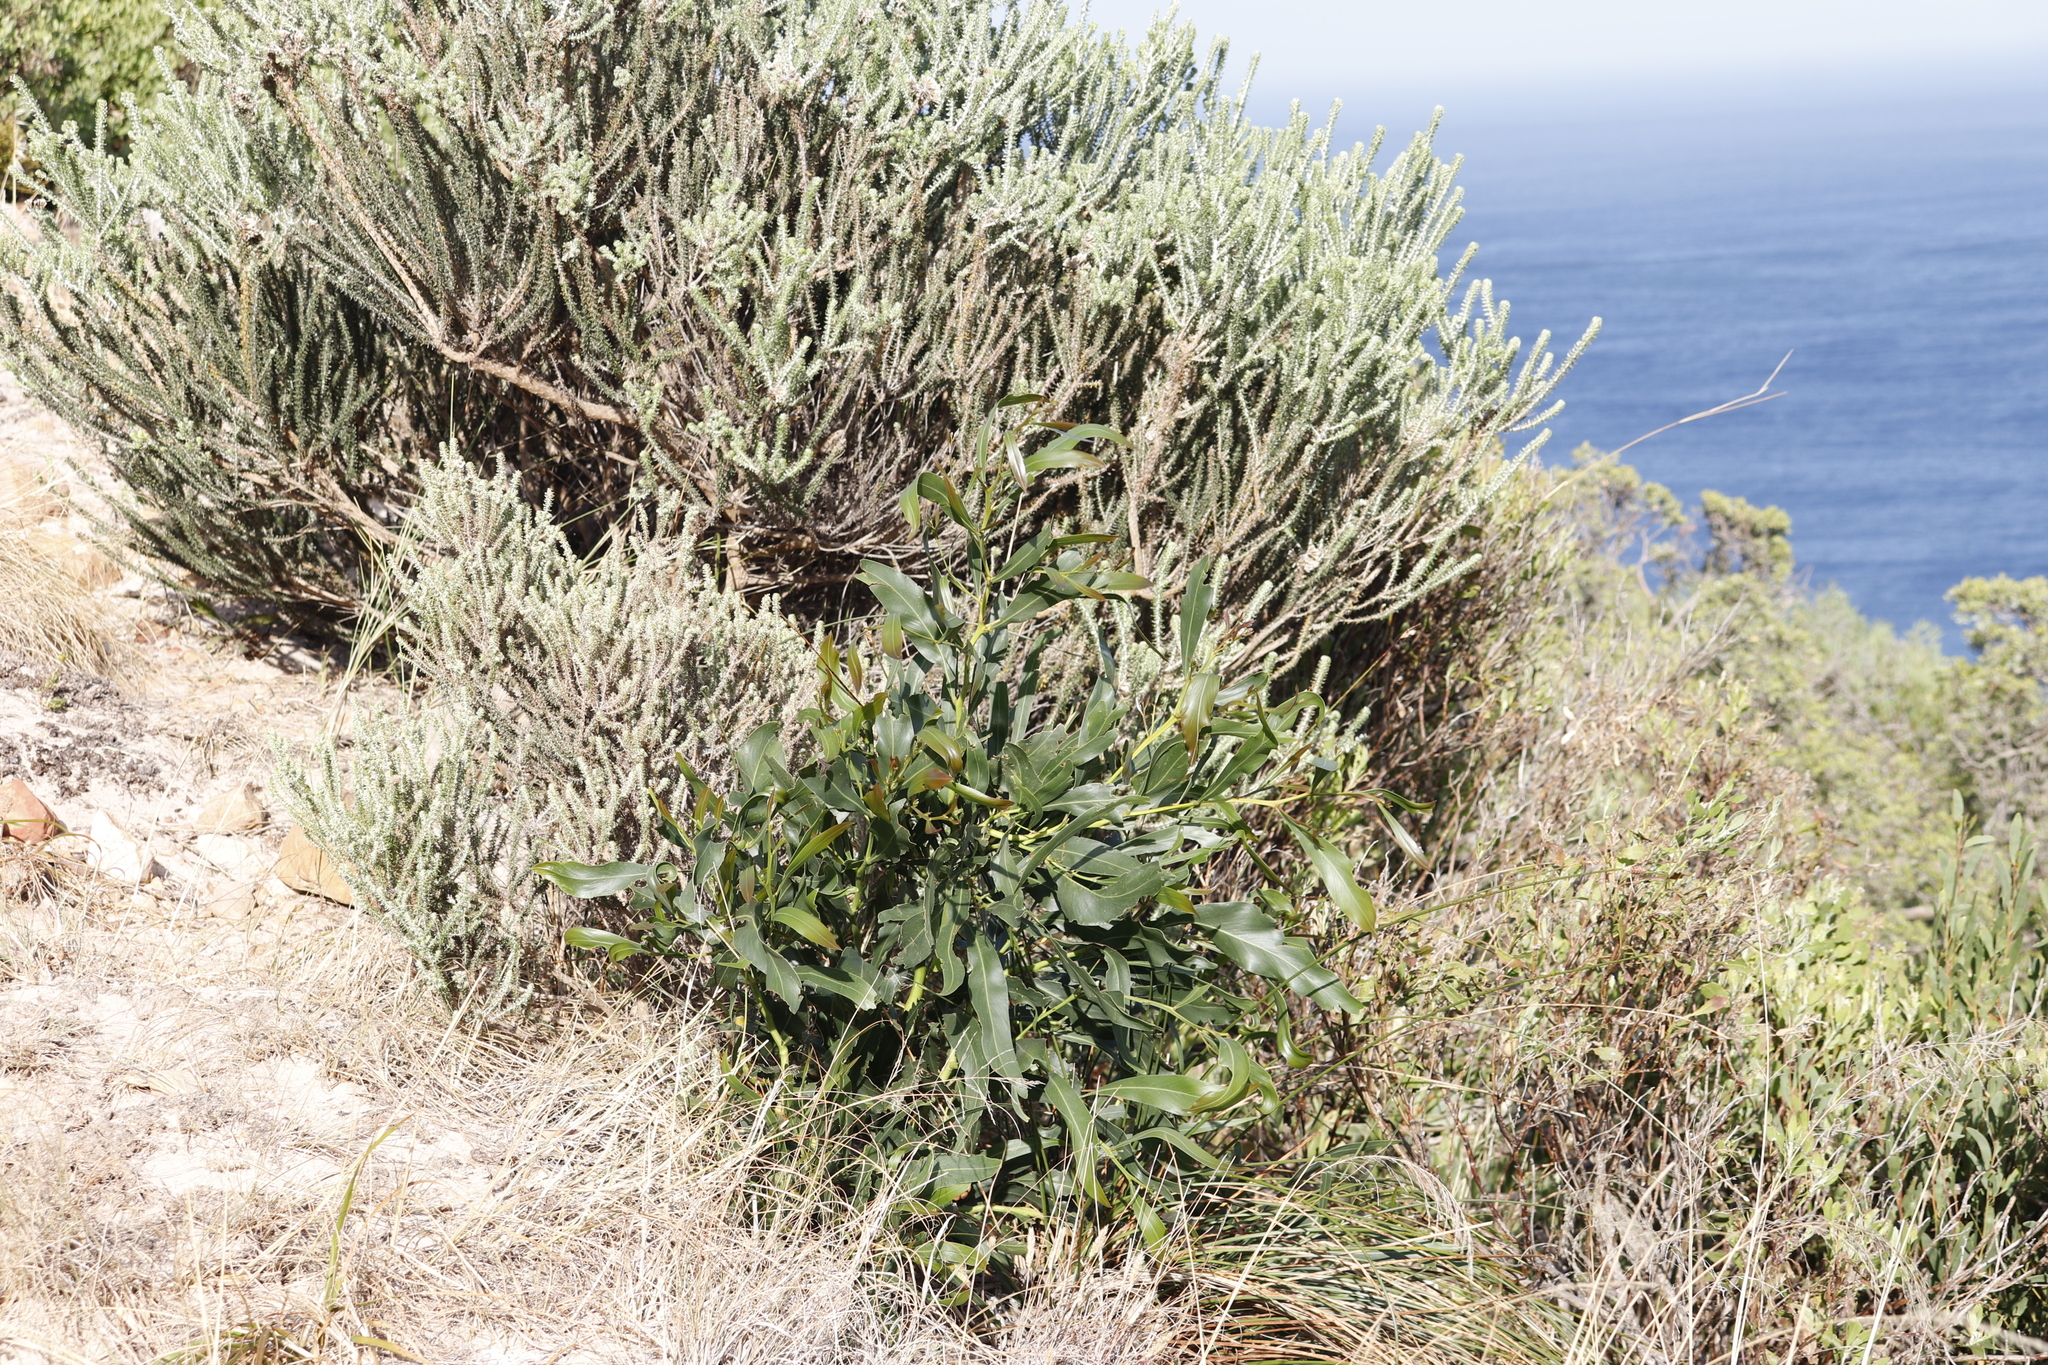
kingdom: Plantae
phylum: Tracheophyta
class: Magnoliopsida
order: Fabales
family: Fabaceae
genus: Acacia
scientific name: Acacia saligna
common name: Orange wattle
